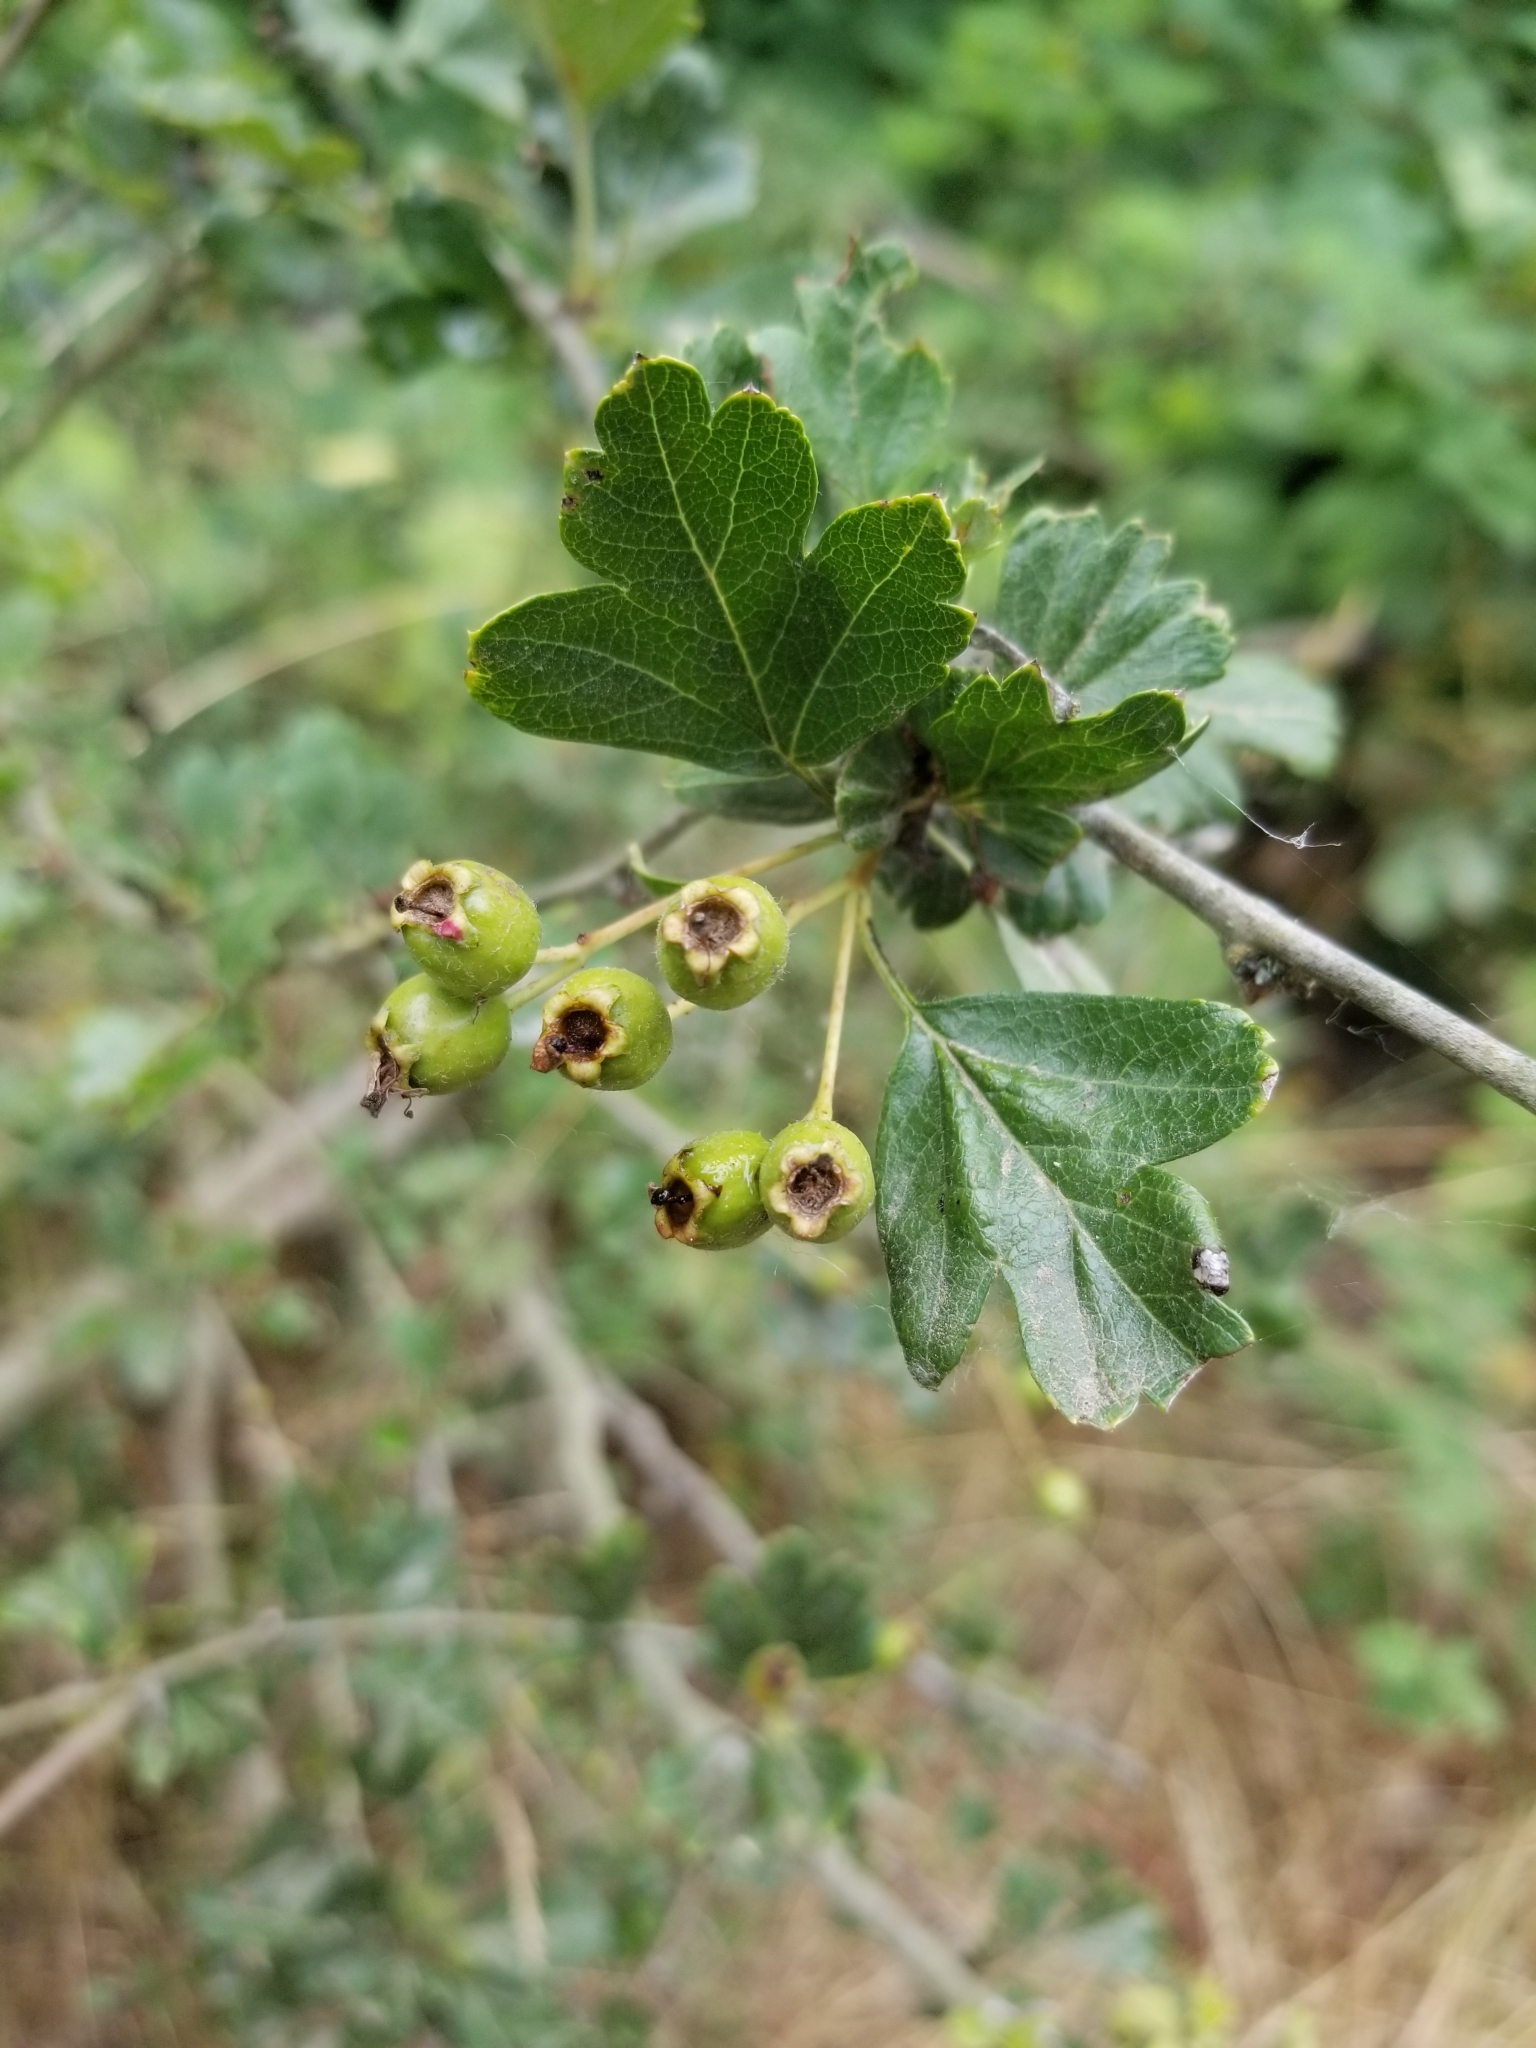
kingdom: Plantae
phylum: Tracheophyta
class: Magnoliopsida
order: Rosales
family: Rosaceae
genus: Crataegus
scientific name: Crataegus monogyna
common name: Hawthorn
